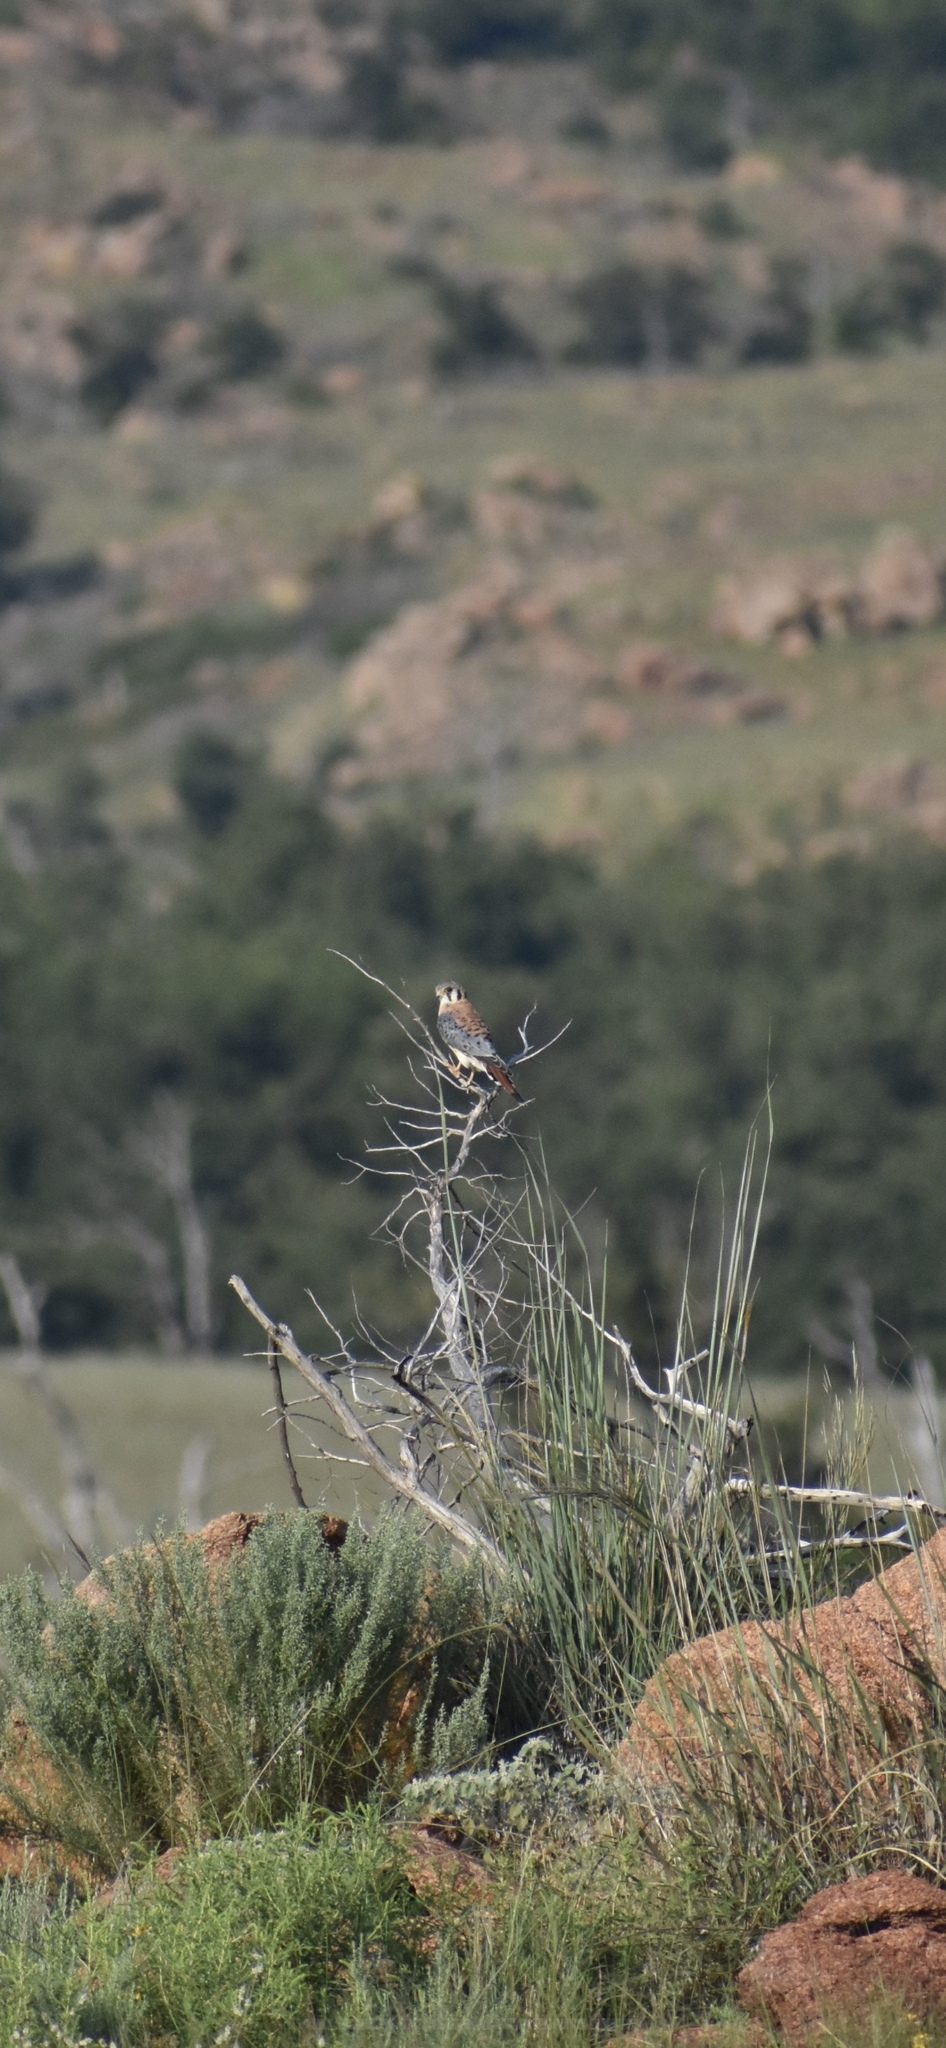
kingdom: Animalia
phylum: Chordata
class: Aves
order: Falconiformes
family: Falconidae
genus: Falco
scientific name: Falco sparverius
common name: American kestrel
